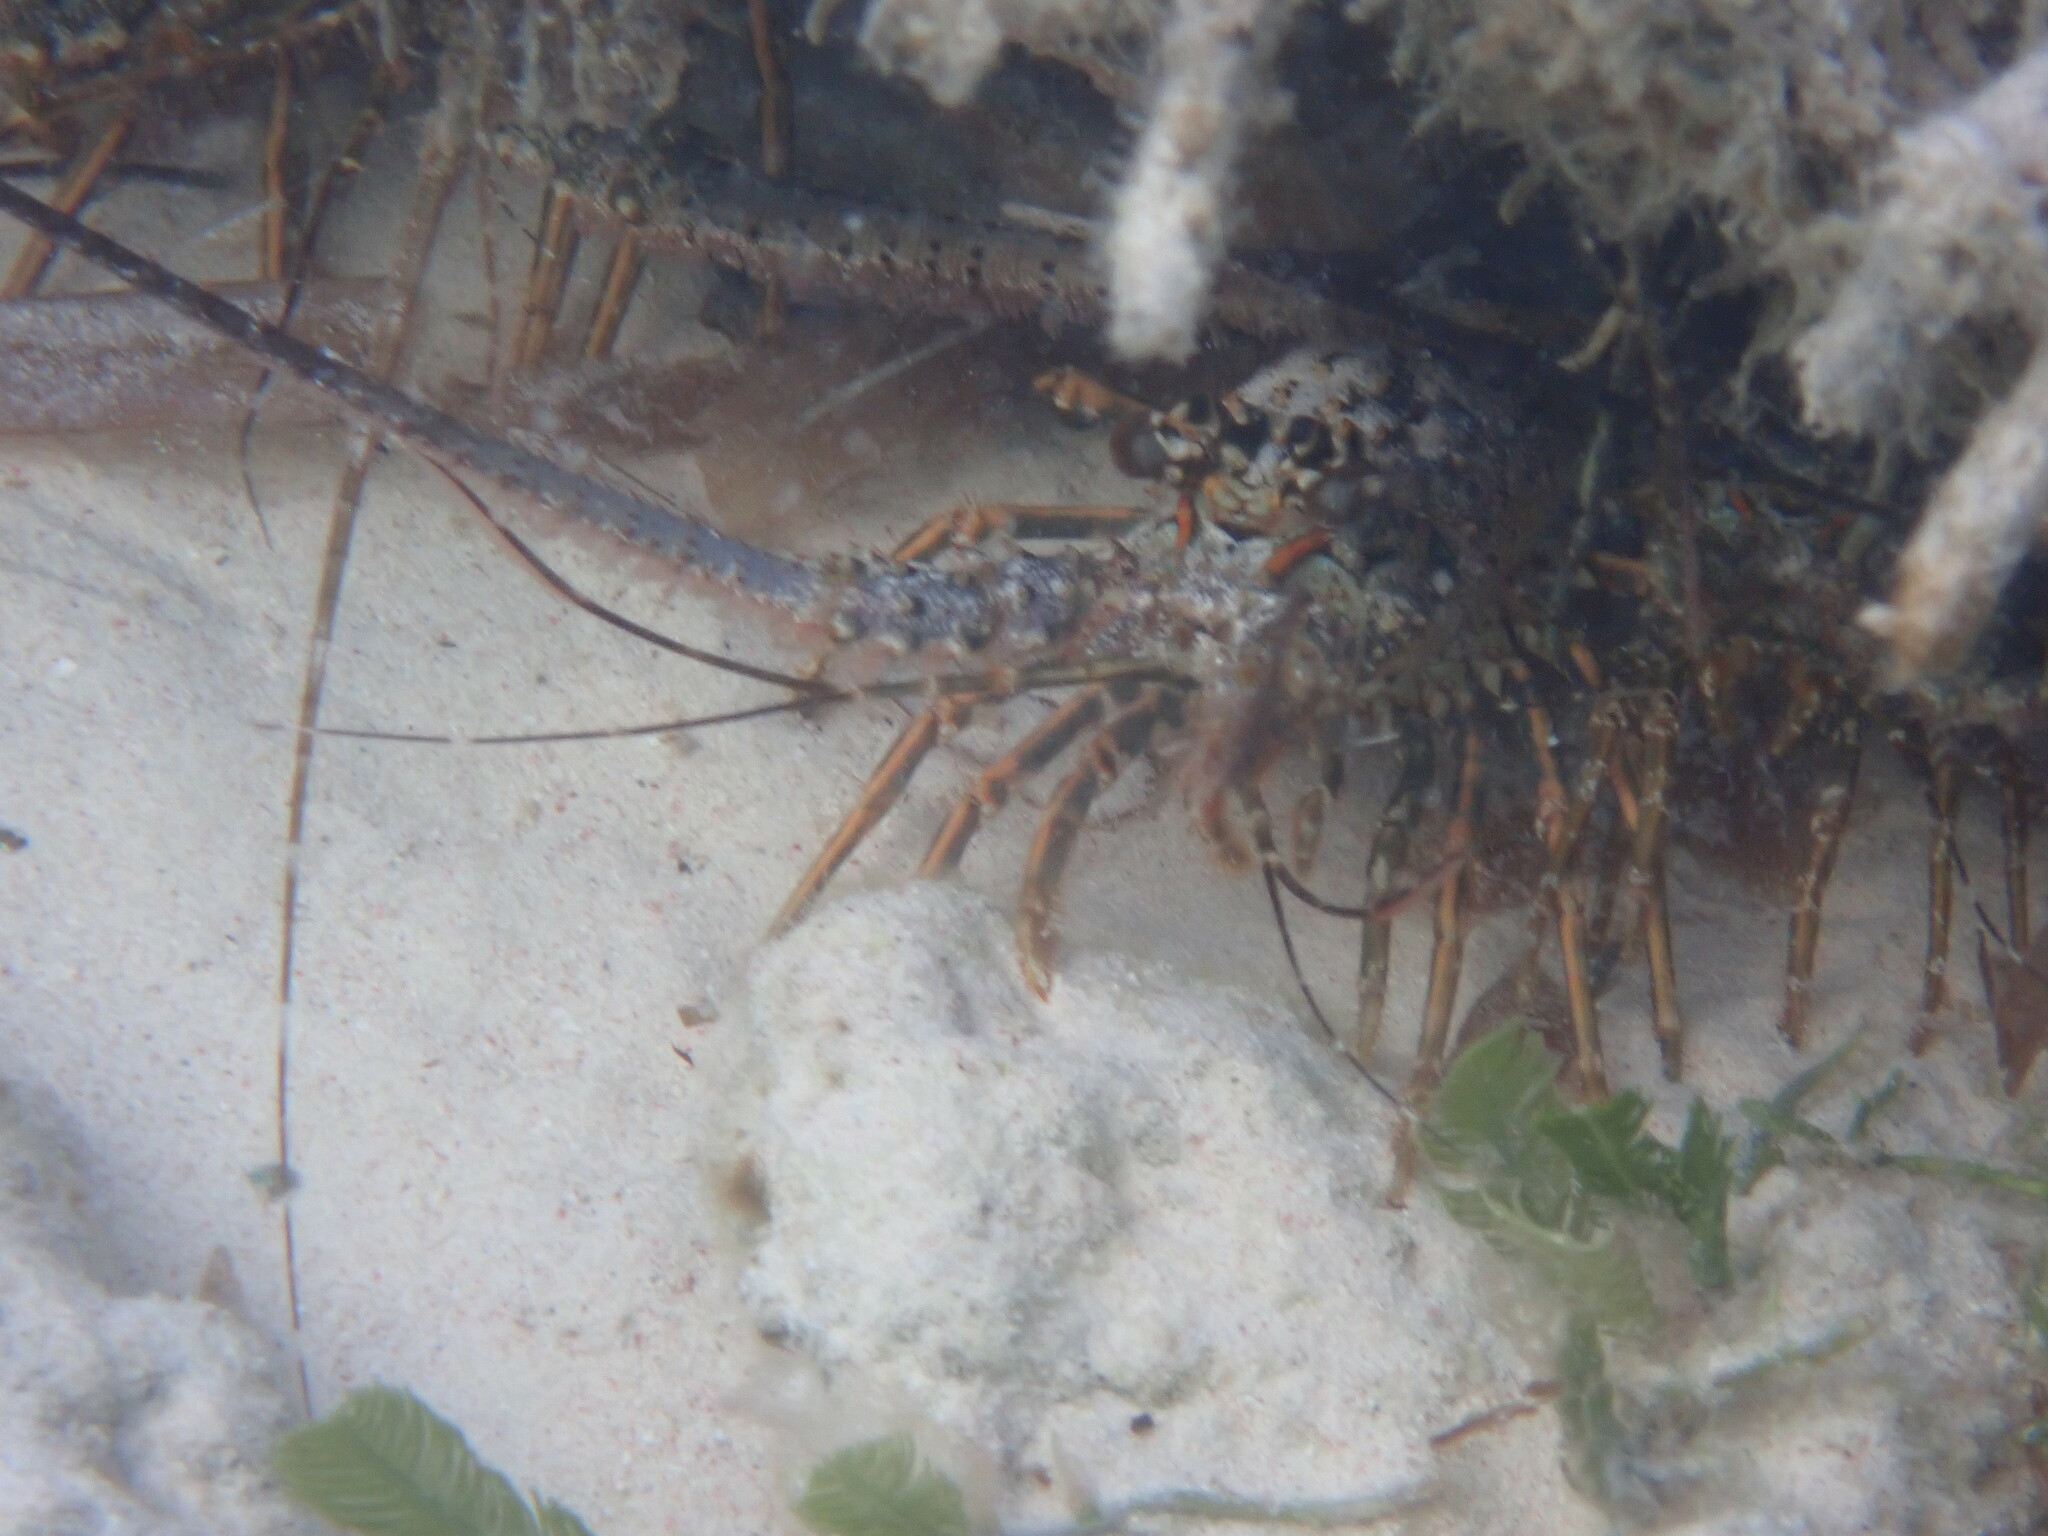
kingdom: Animalia
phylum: Arthropoda
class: Malacostraca
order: Decapoda
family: Palinuridae
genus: Panulirus
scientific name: Panulirus argus
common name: Caribbean spiny lobster
